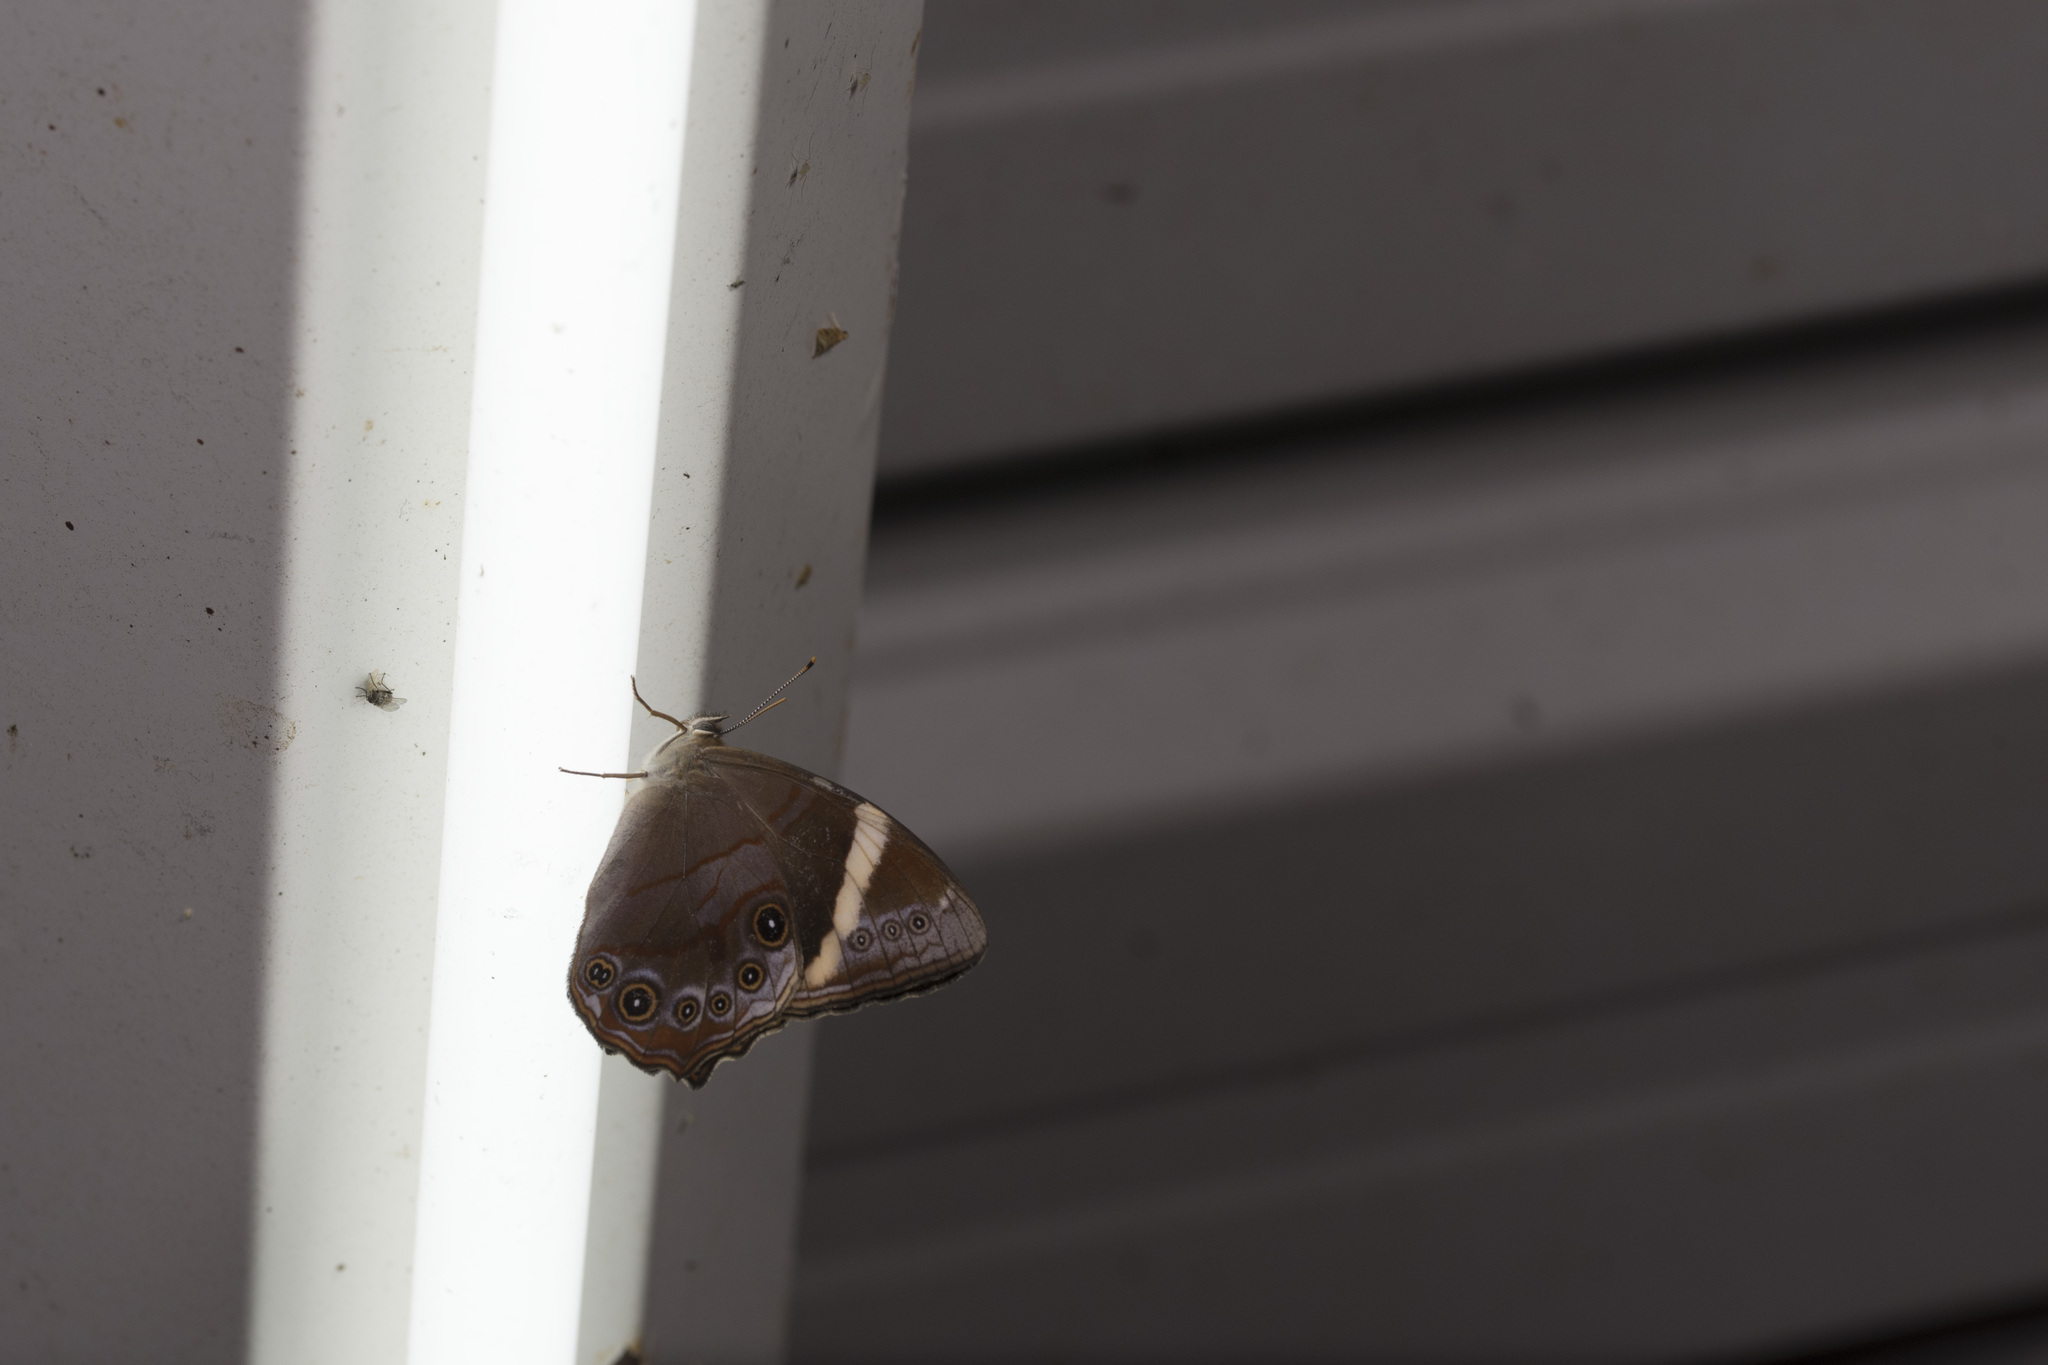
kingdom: Animalia
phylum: Arthropoda
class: Insecta
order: Lepidoptera
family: Nymphalidae
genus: Lethe
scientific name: Lethe hyrania
